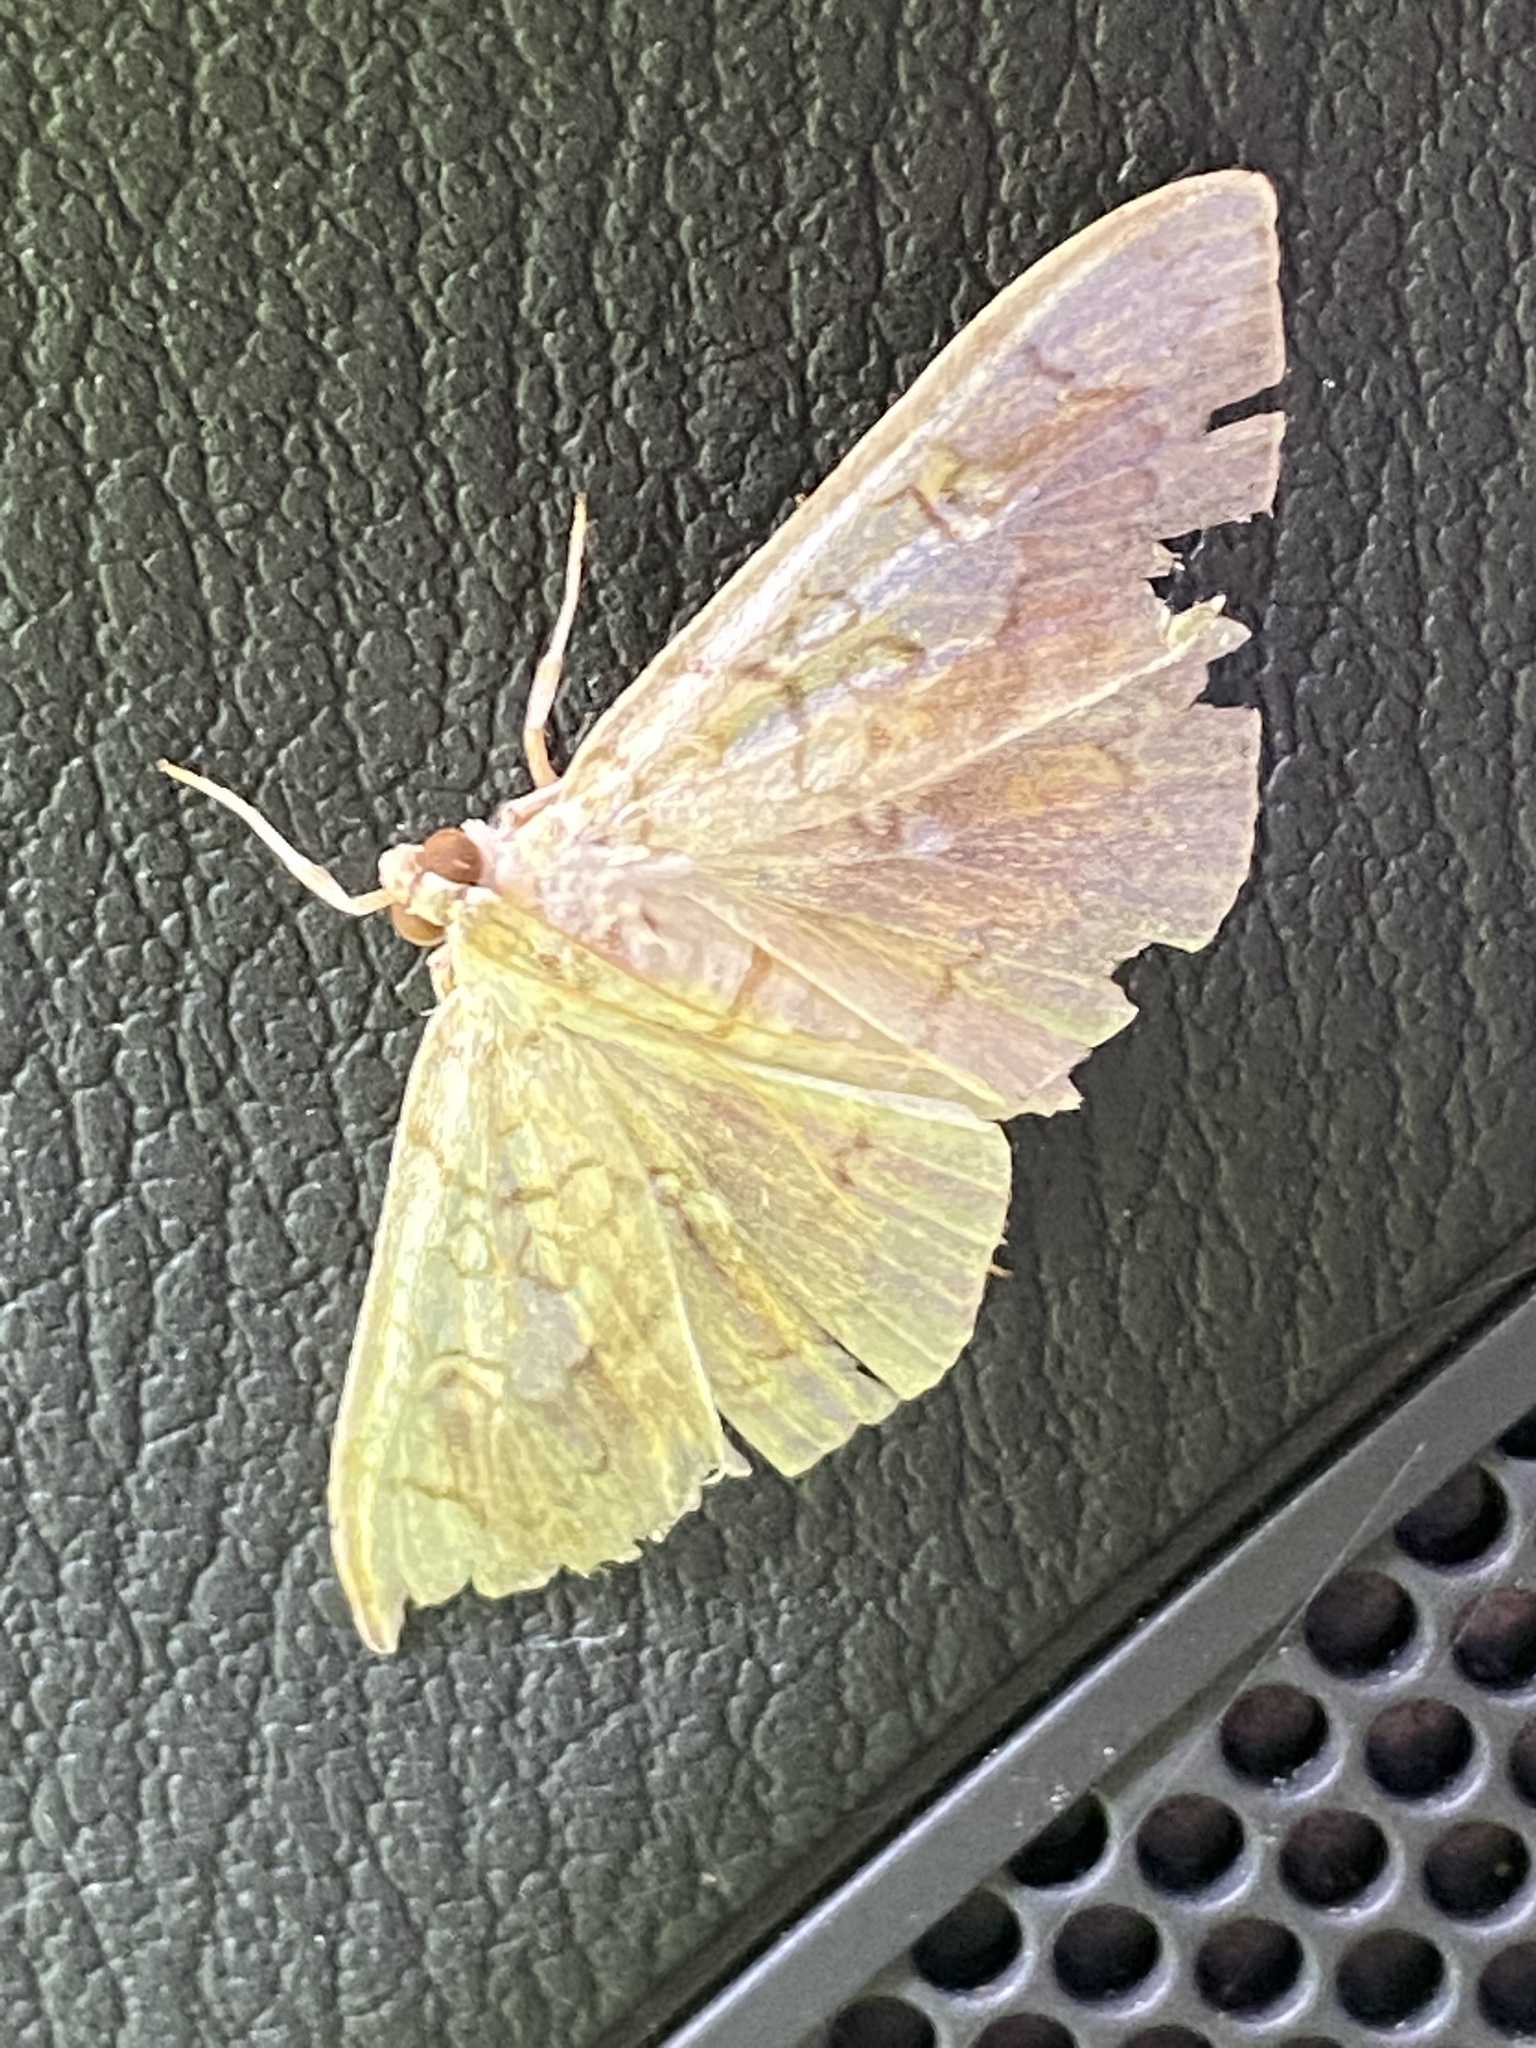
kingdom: Animalia
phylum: Arthropoda
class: Insecta
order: Lepidoptera
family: Crambidae
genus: Pantographa
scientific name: Pantographa limata
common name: Basswood leafroller moth
